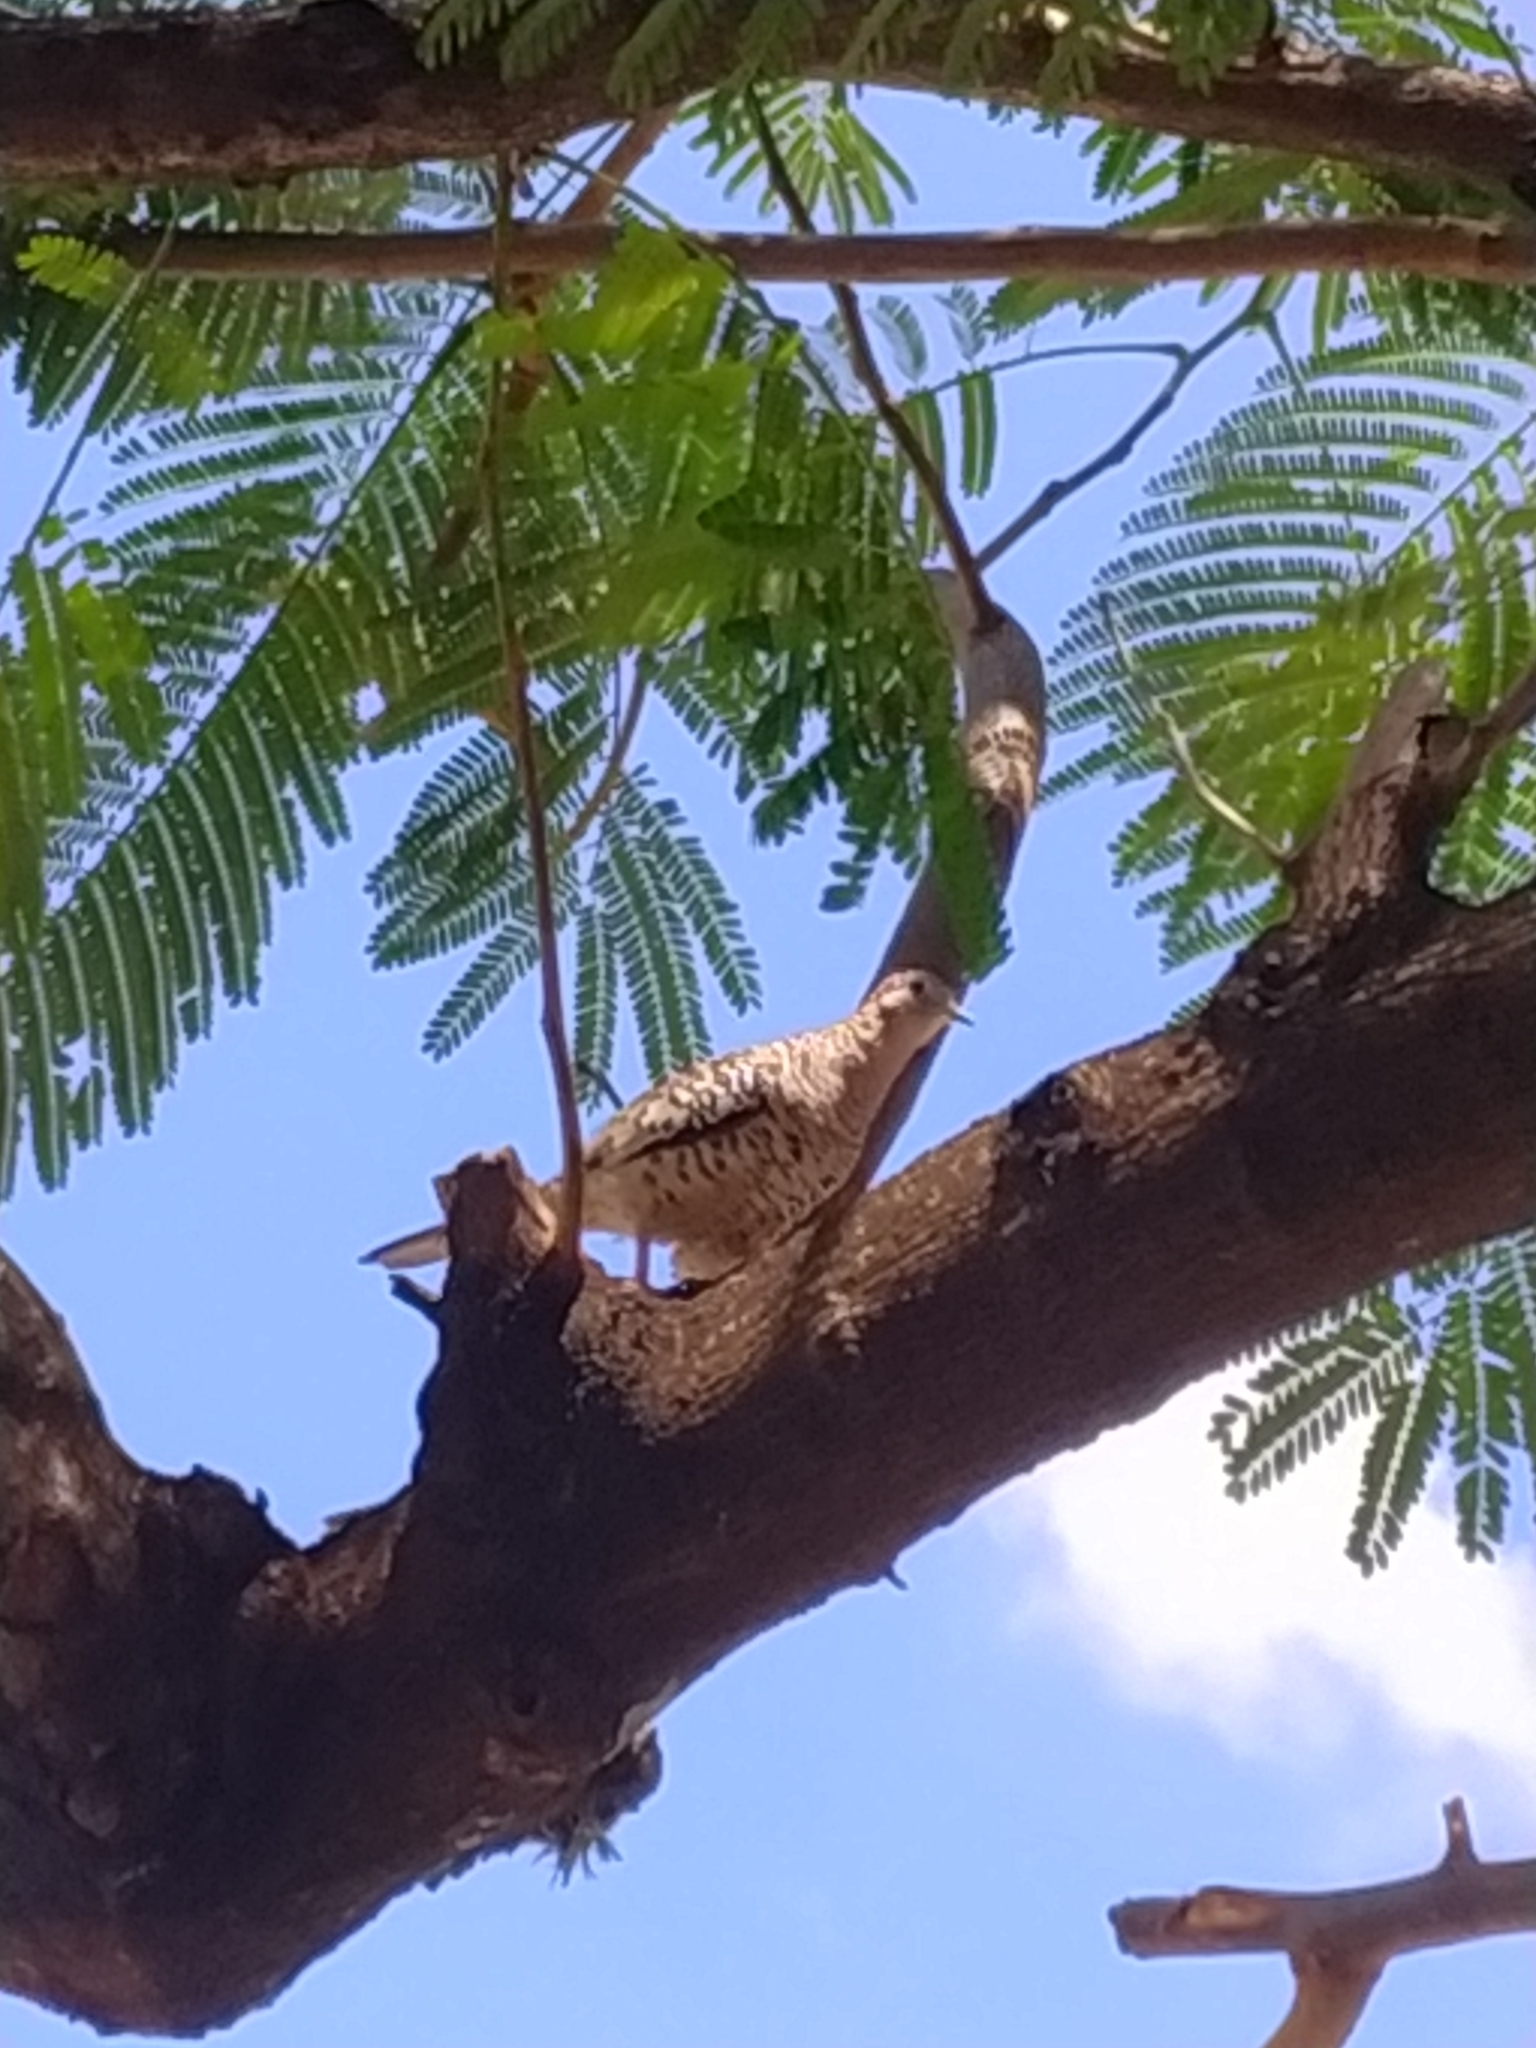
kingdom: Animalia
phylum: Chordata
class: Aves
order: Columbiformes
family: Columbidae
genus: Columbina
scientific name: Columbina squammata
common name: Scaled dove
